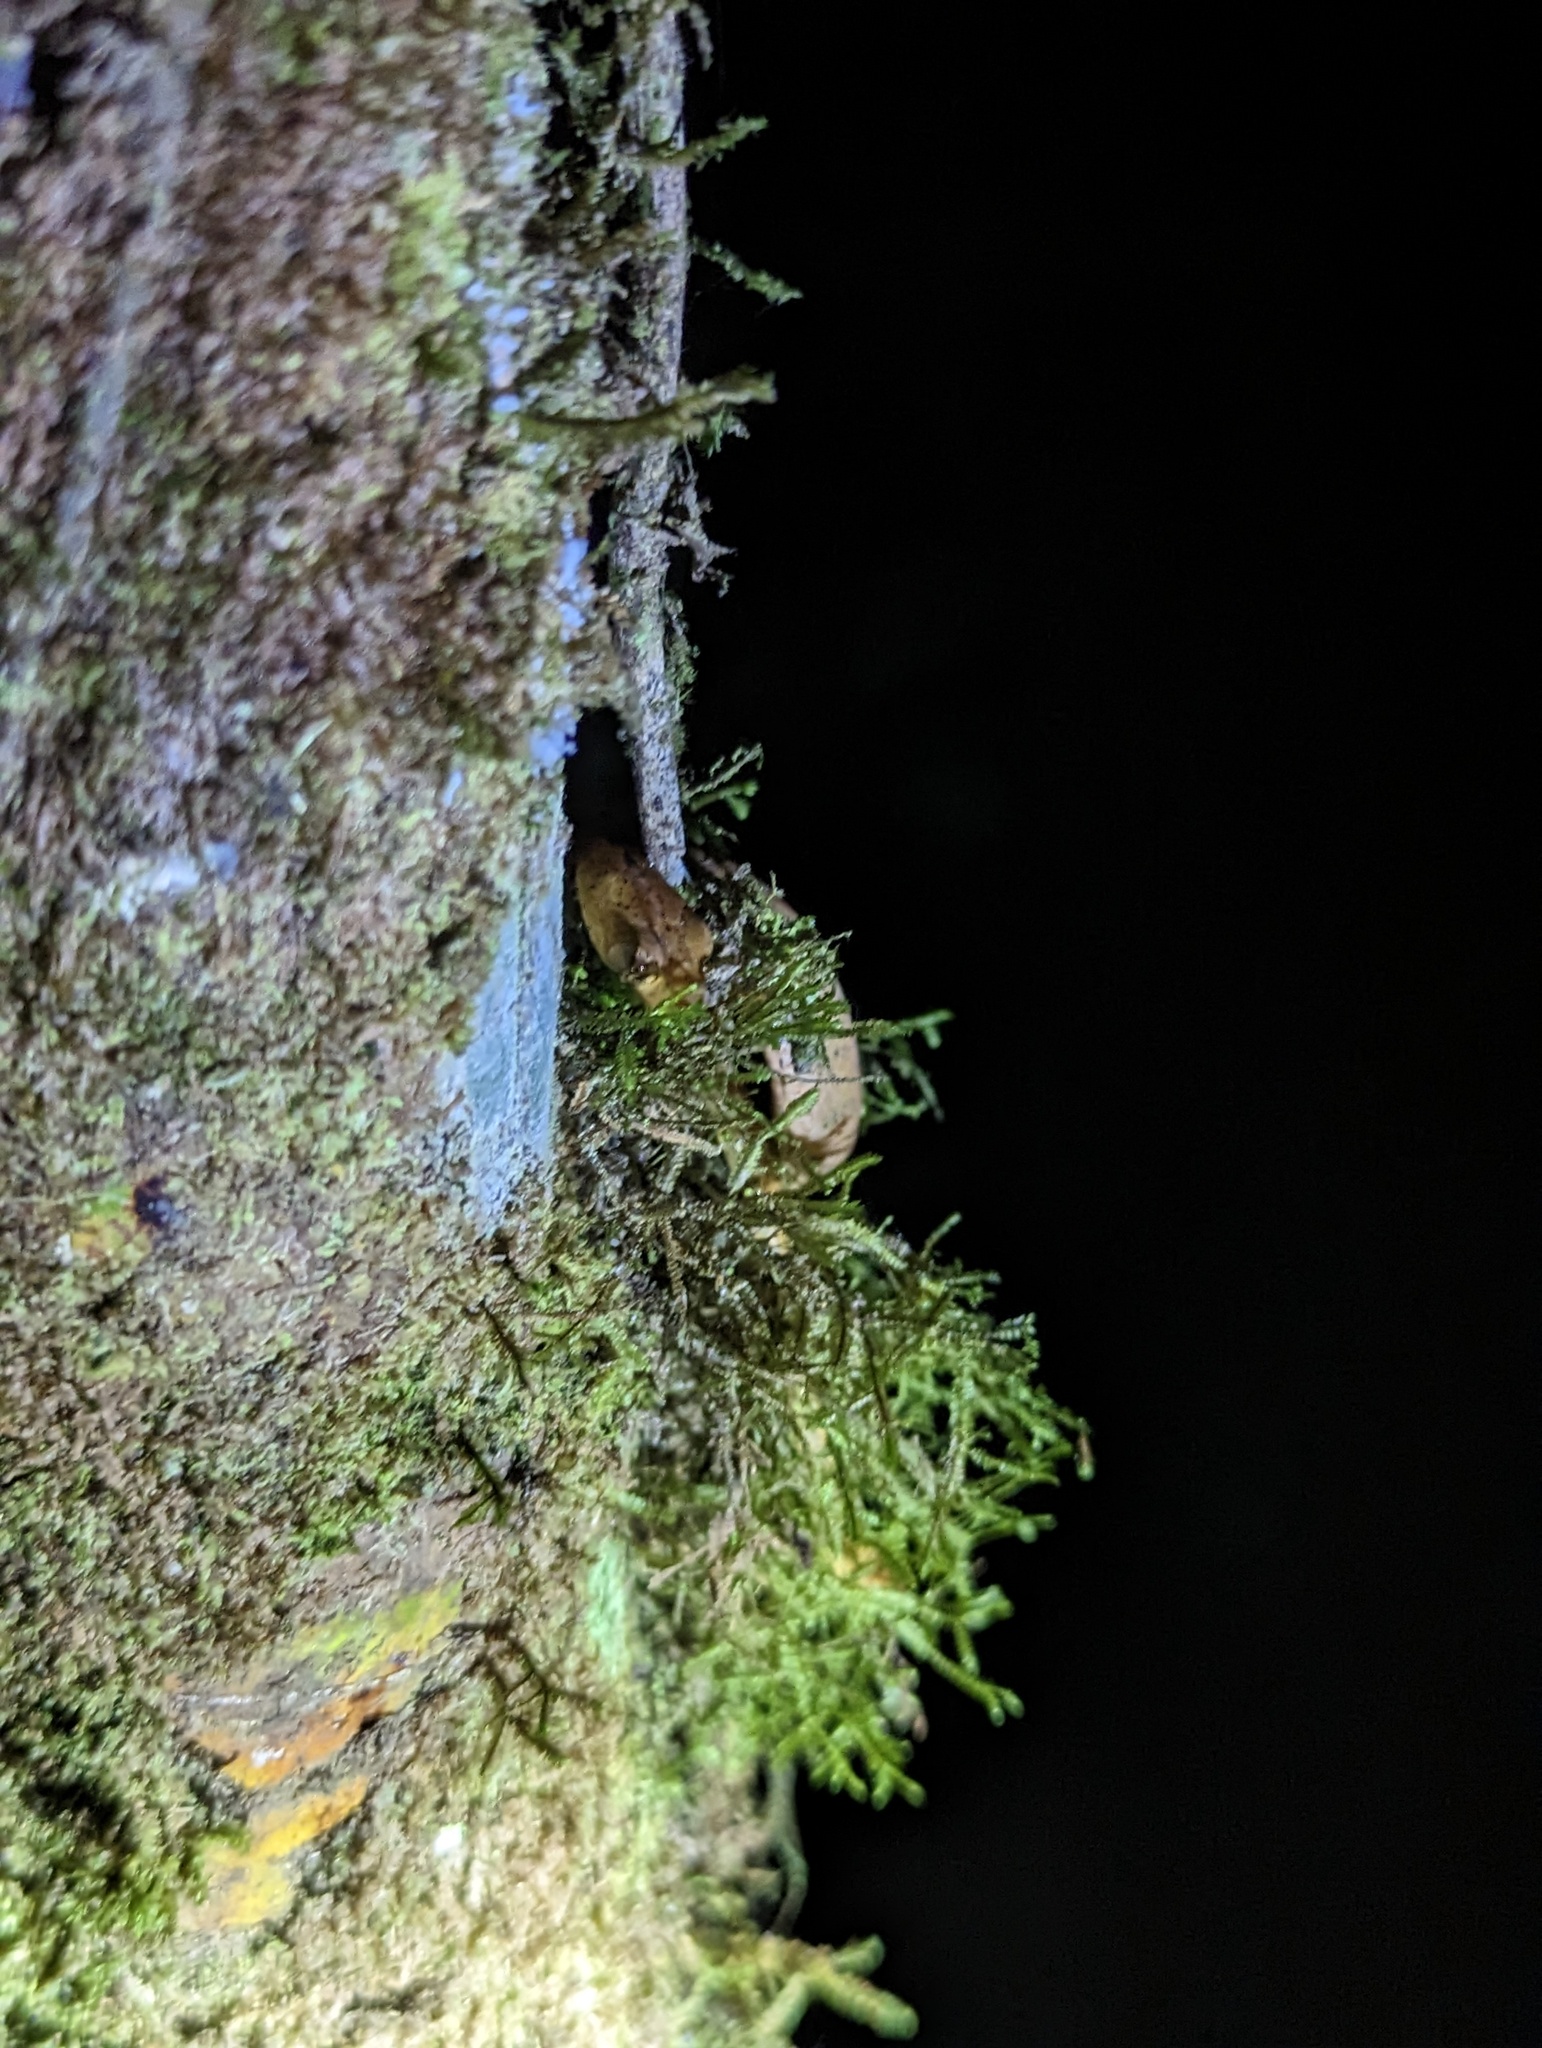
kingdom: Animalia
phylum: Chordata
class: Squamata
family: Colubridae
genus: Imantodes
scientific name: Imantodes inornatus
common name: Western tree snake
